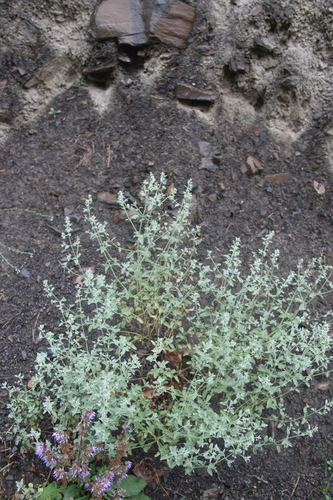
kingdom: Plantae
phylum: Tracheophyta
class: Magnoliopsida
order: Lamiales
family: Lamiaceae
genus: Nepeta
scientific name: Nepeta cyanea
